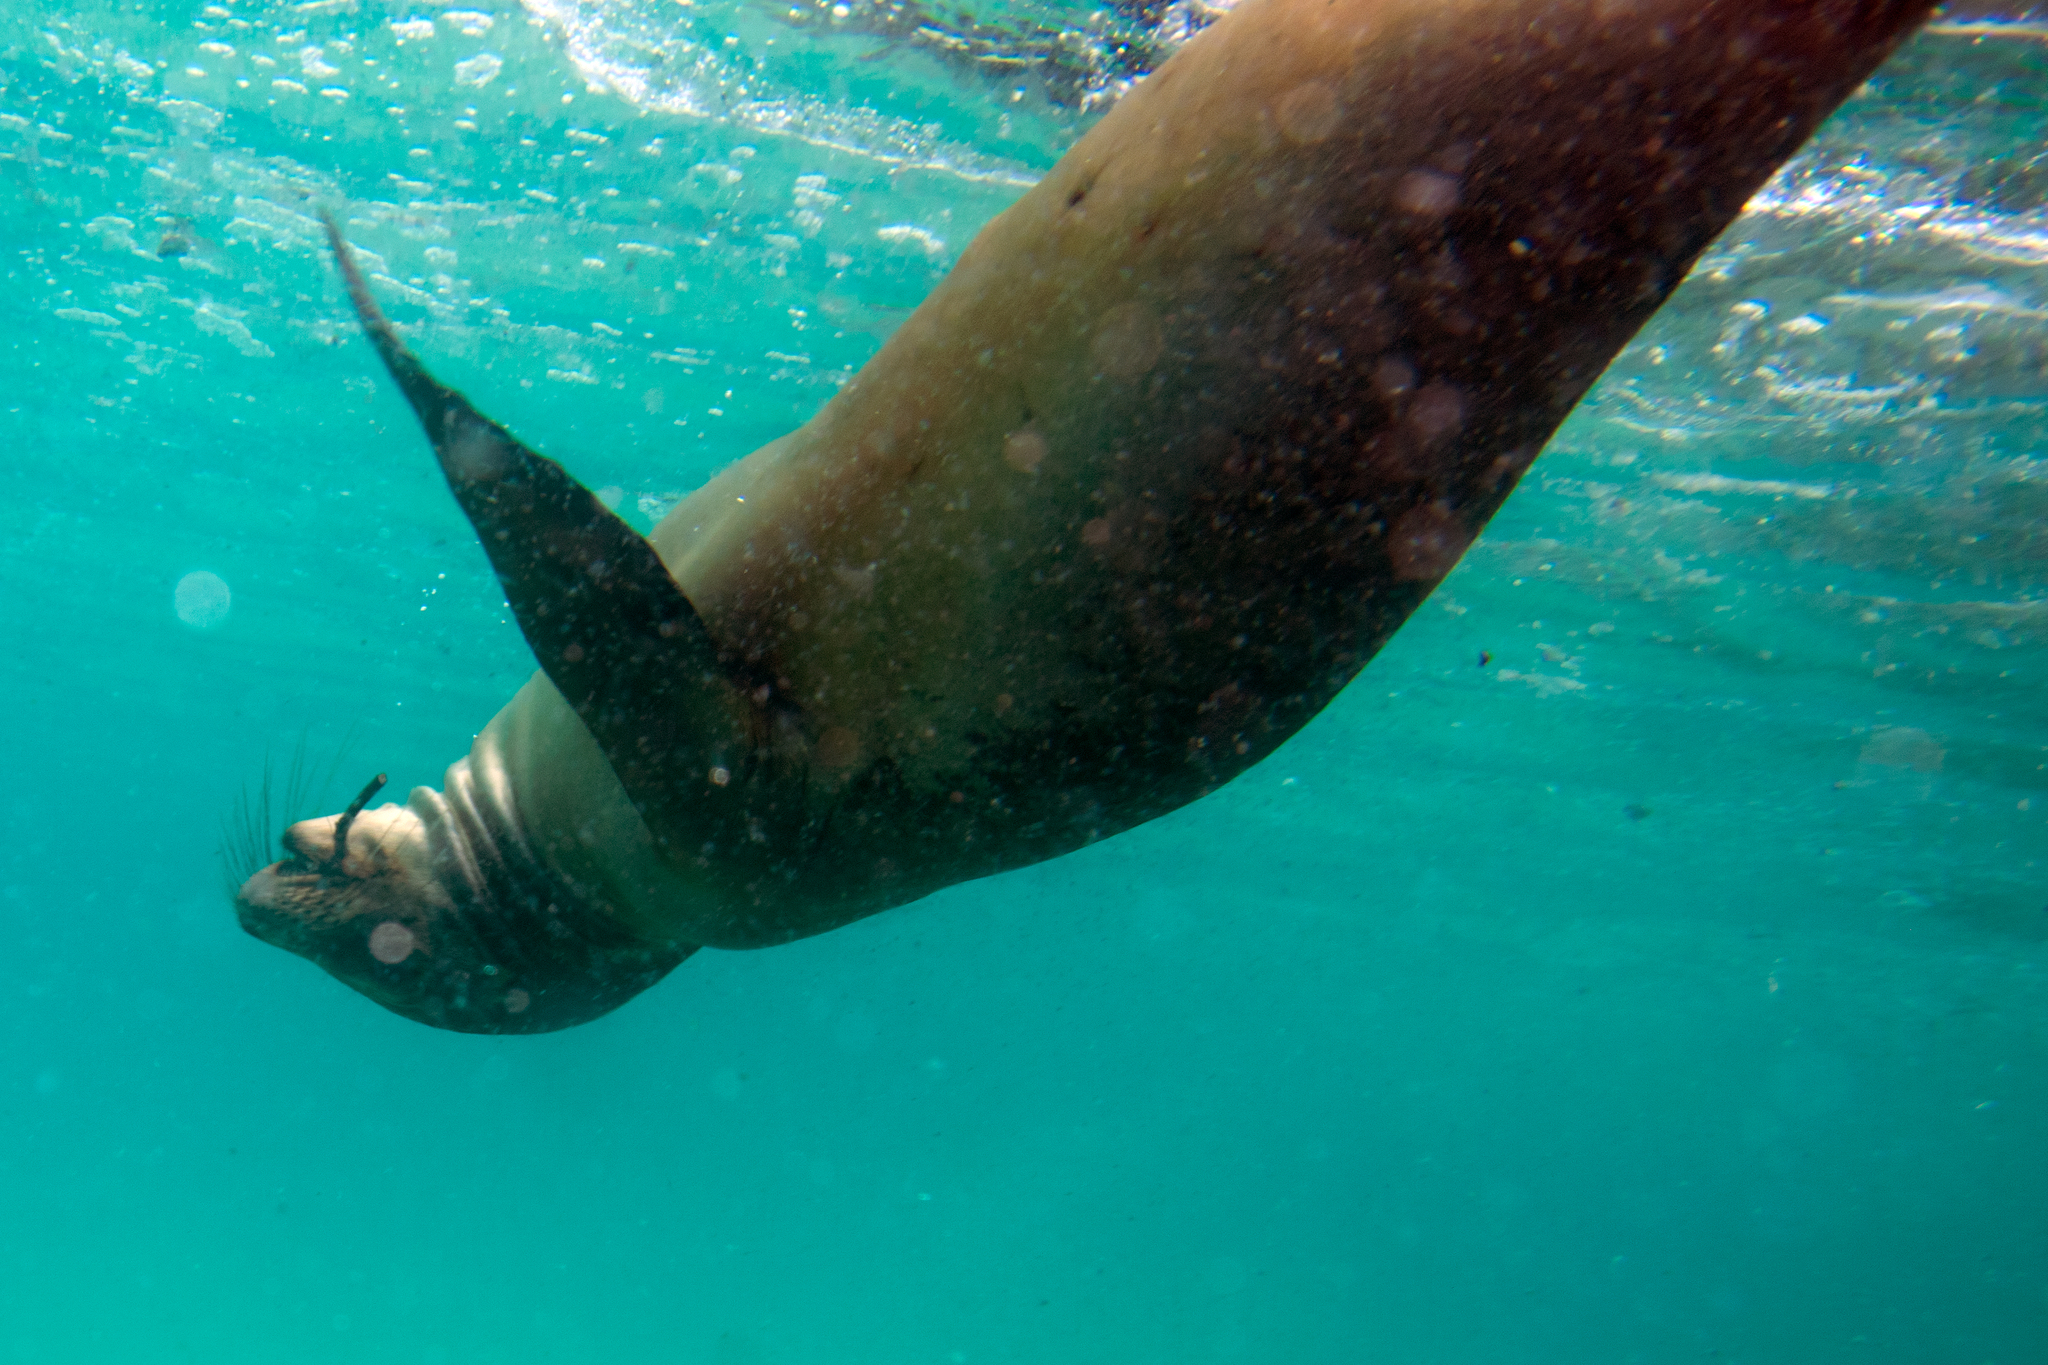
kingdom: Animalia
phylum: Chordata
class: Mammalia
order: Carnivora
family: Otariidae
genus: Zalophus
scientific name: Zalophus wollebaeki
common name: Galapagos sea lion
